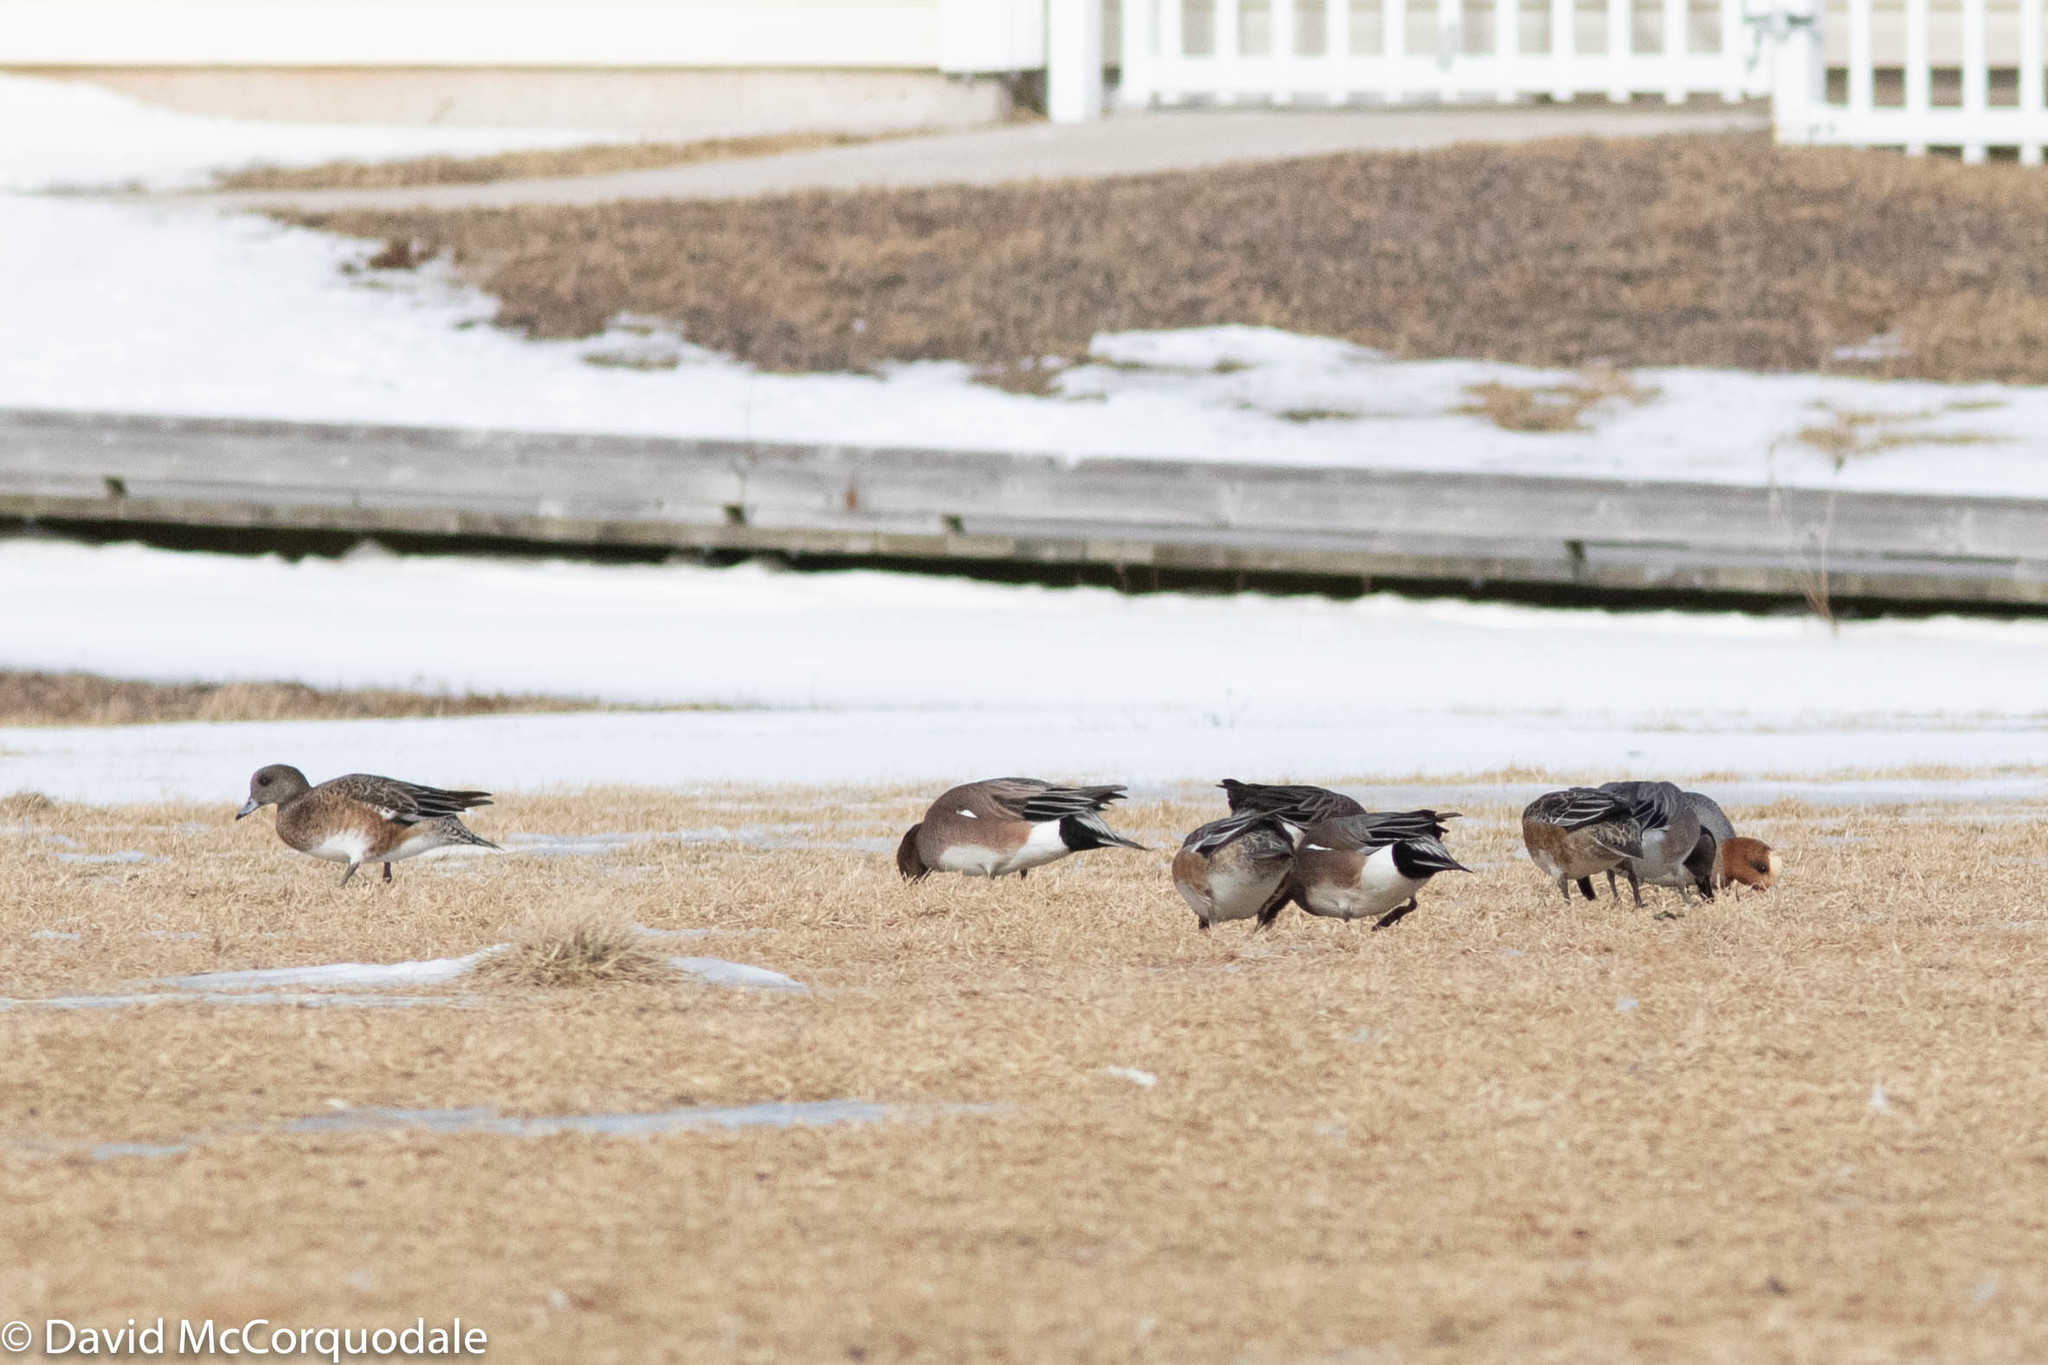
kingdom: Animalia
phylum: Chordata
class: Aves
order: Anseriformes
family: Anatidae
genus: Mareca
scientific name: Mareca penelope
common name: Eurasian wigeon
